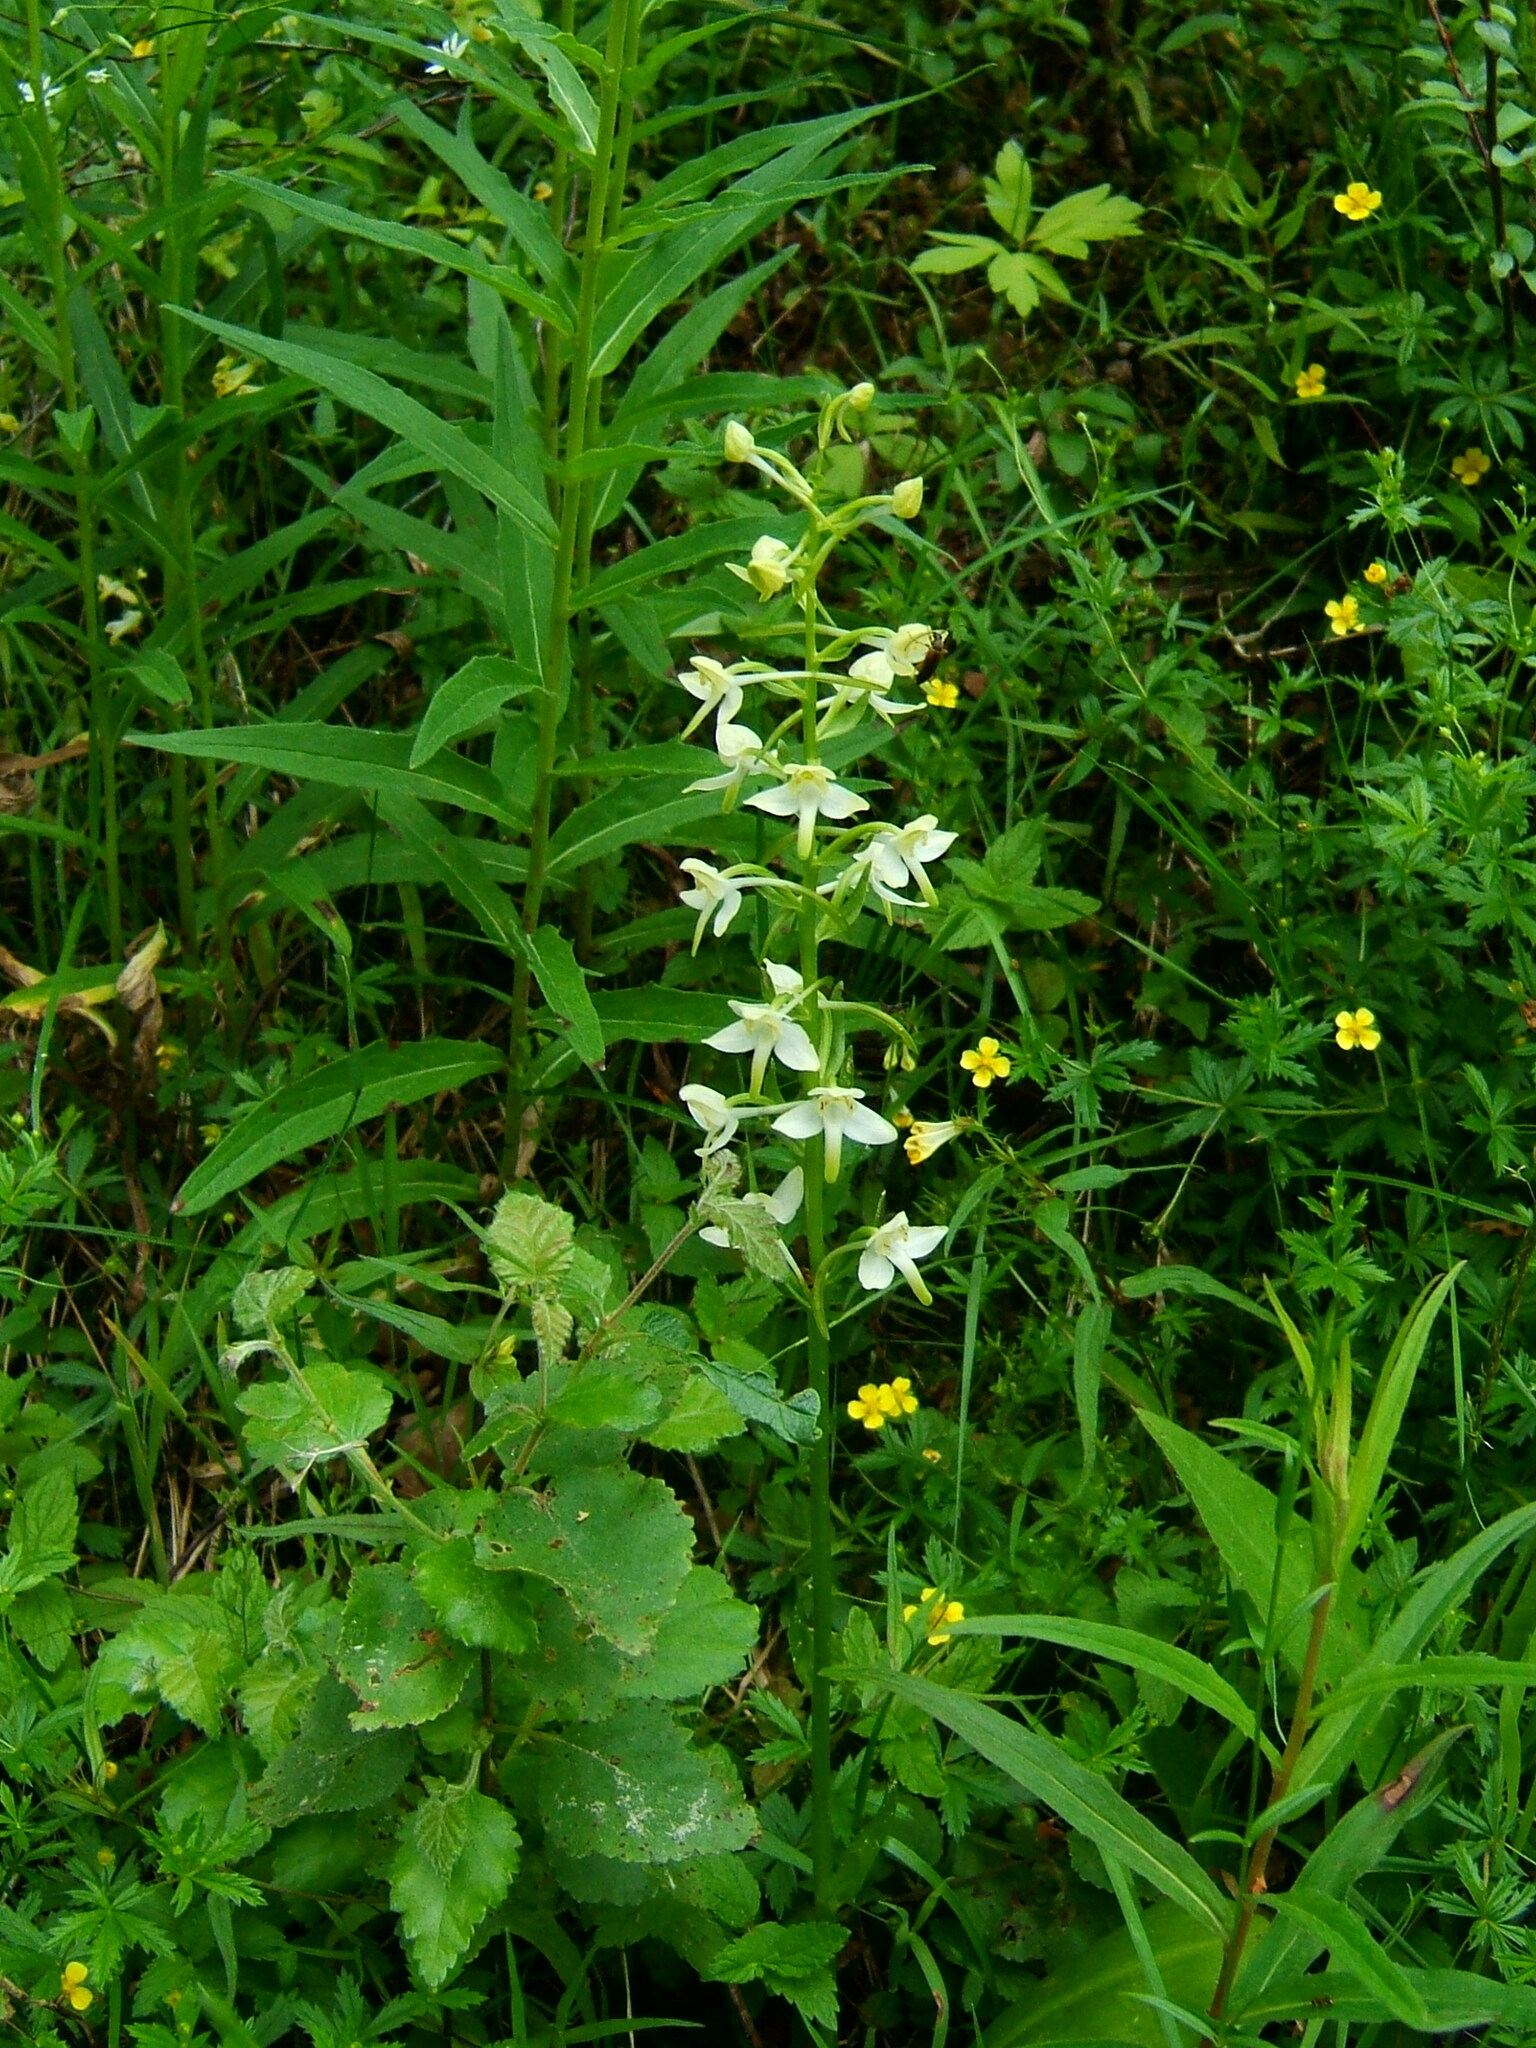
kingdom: Plantae
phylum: Tracheophyta
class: Liliopsida
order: Asparagales
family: Orchidaceae
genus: Platanthera
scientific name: Platanthera chlorantha
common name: Greater butterfly-orchid
